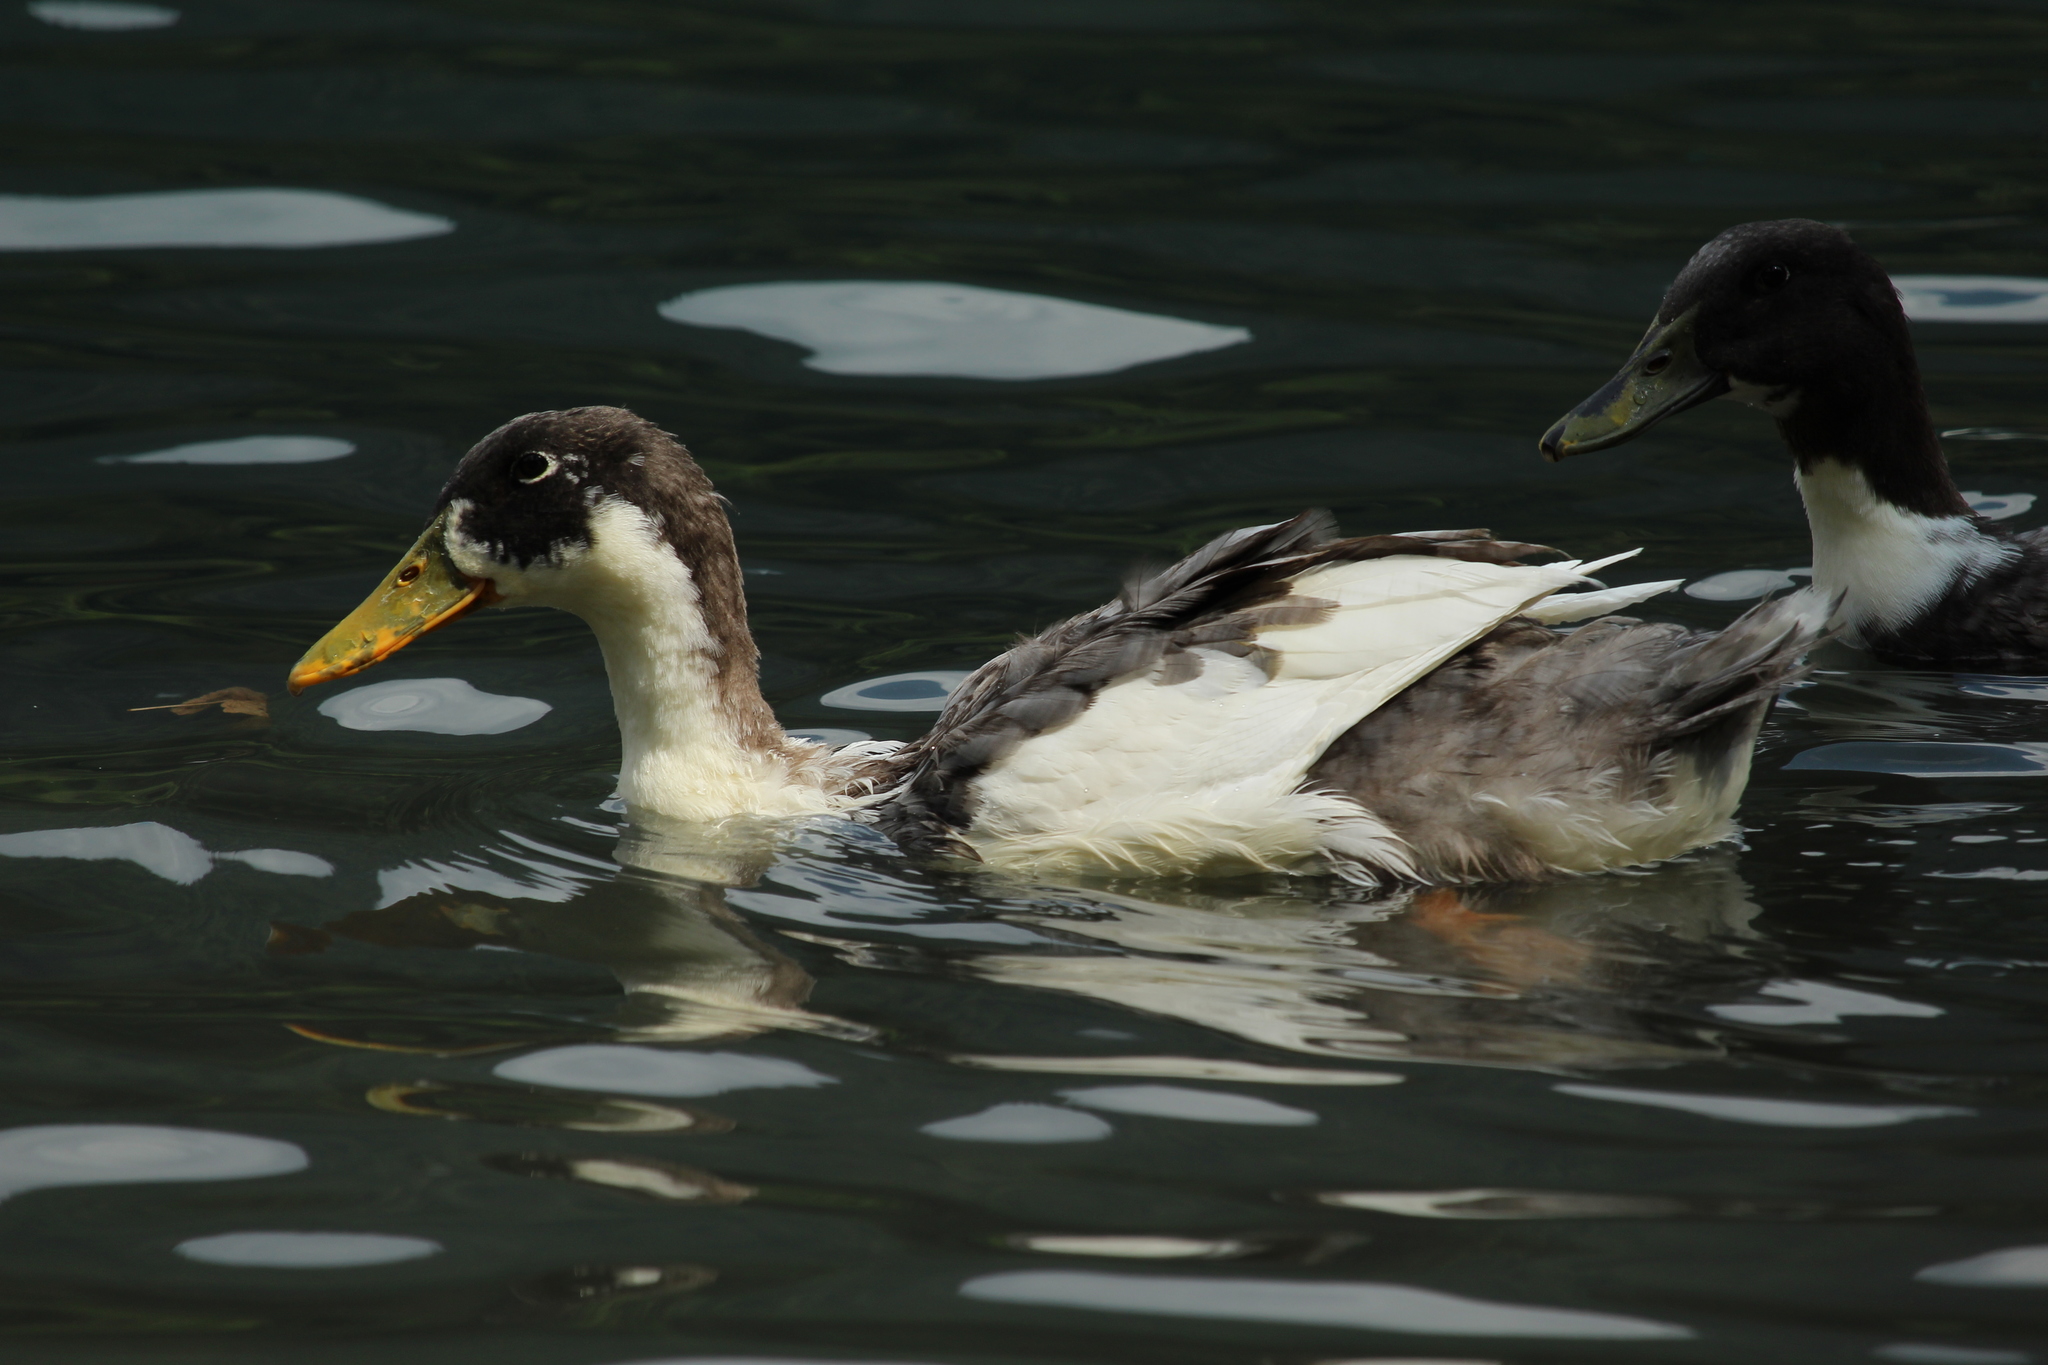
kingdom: Animalia
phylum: Chordata
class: Aves
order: Anseriformes
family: Anatidae
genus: Anas
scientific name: Anas platyrhynchos
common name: Mallard
